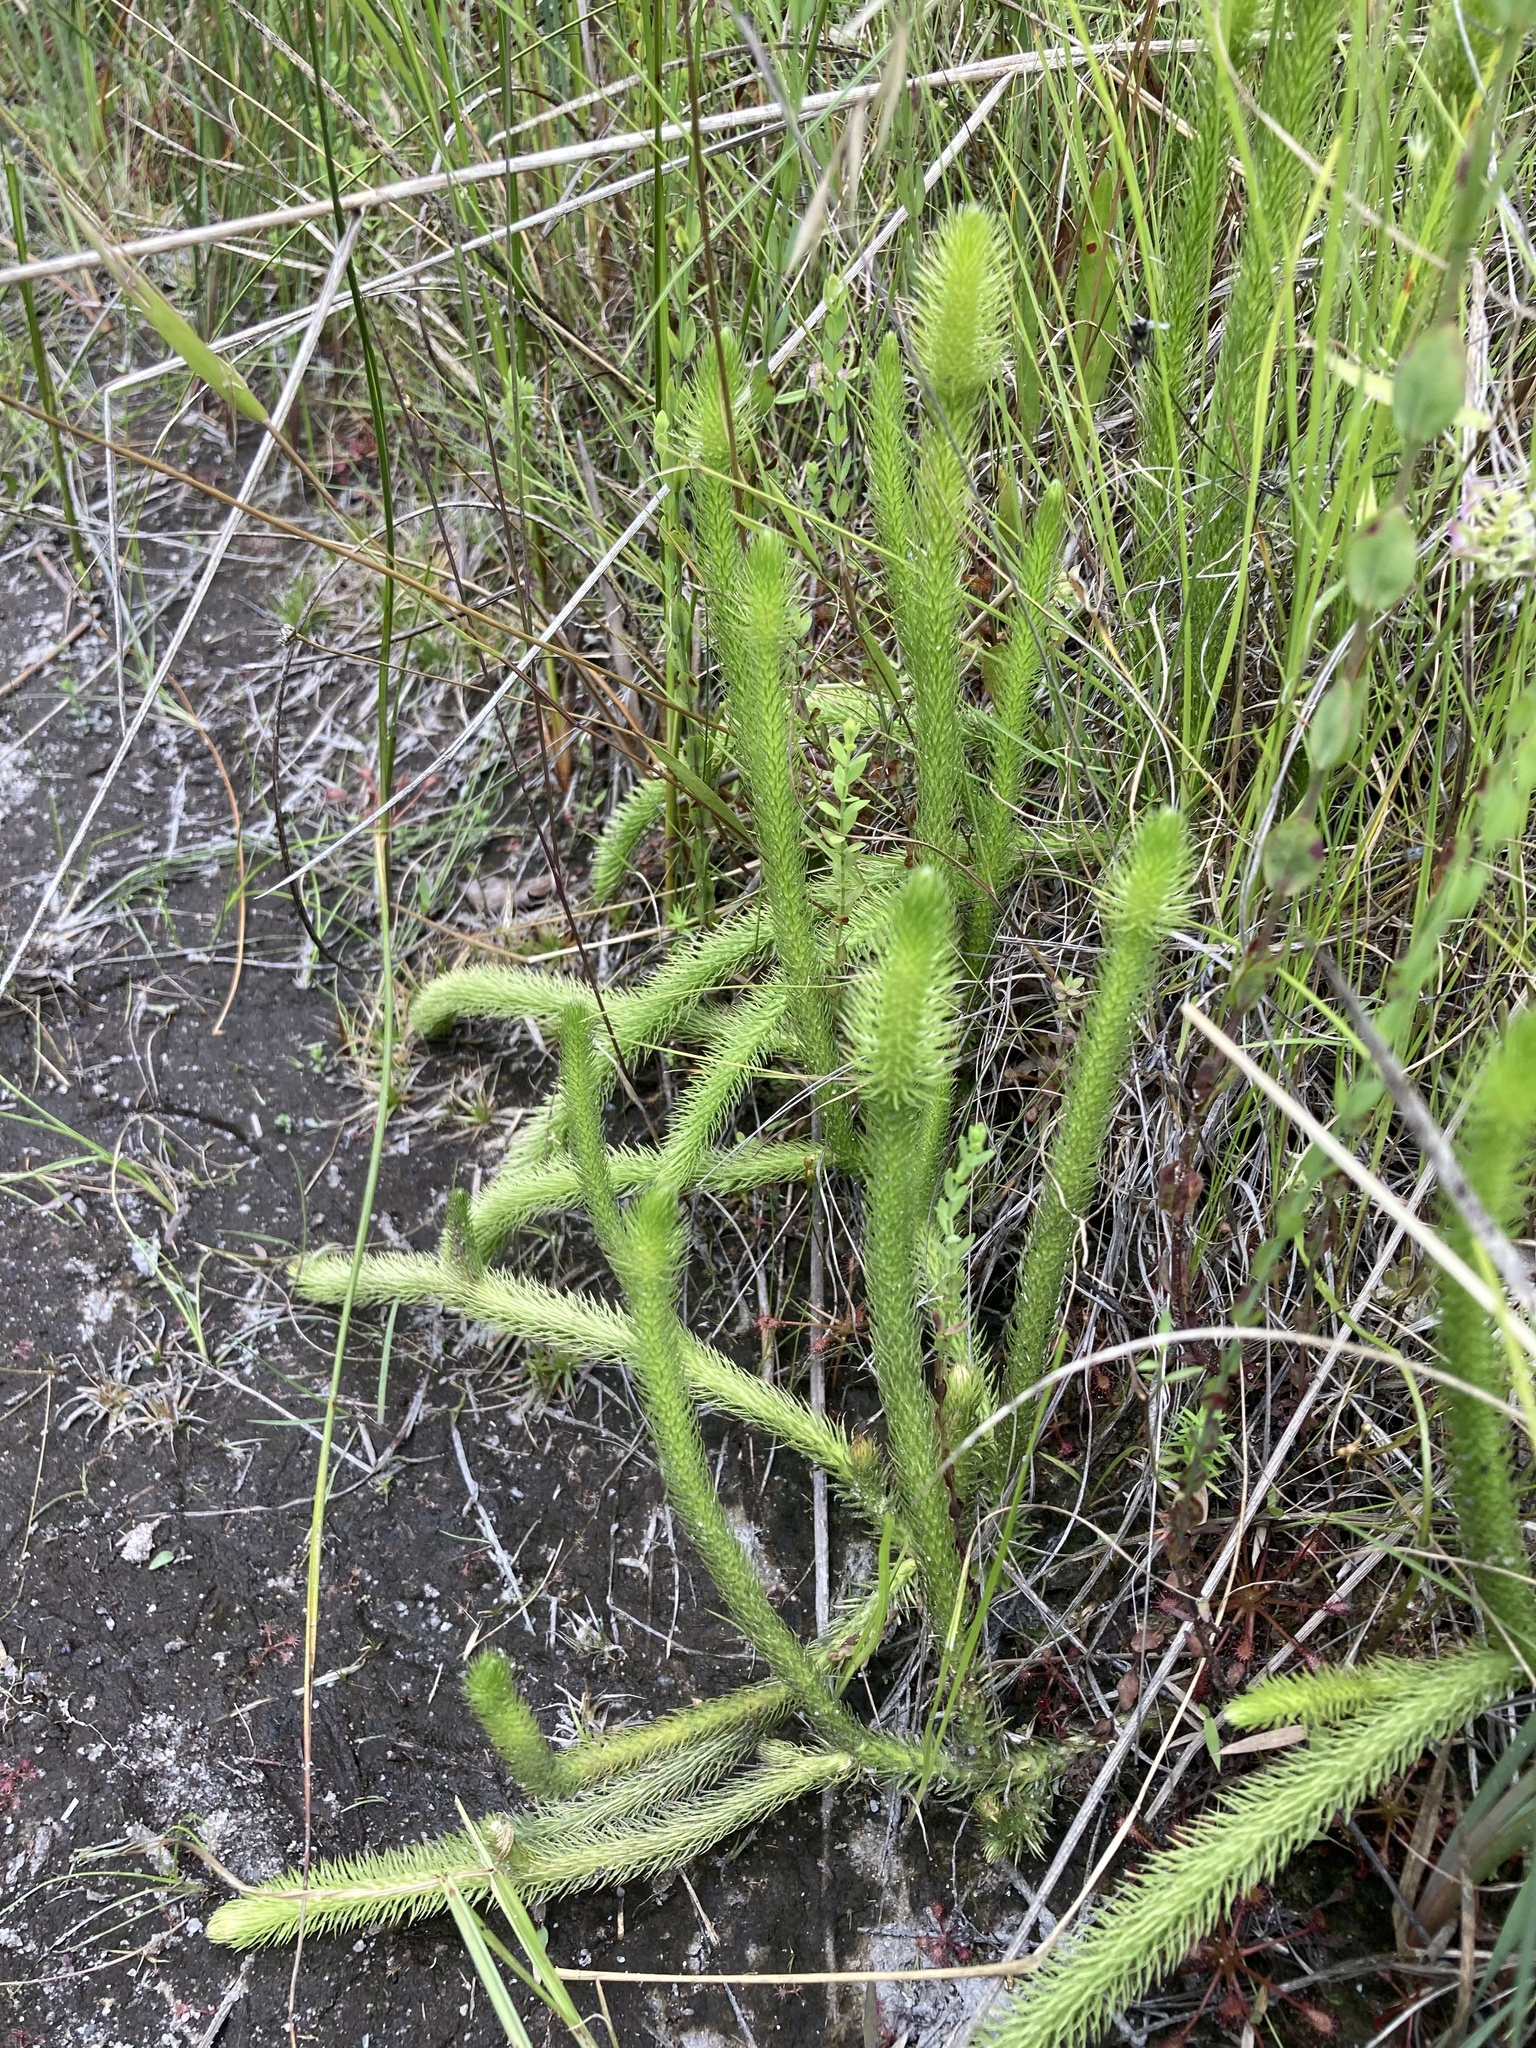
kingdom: Plantae
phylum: Tracheophyta
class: Lycopodiopsida
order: Lycopodiales
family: Lycopodiaceae
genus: Lycopodiella
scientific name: Lycopodiella alopecuroides
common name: Foxtail clubmoss
